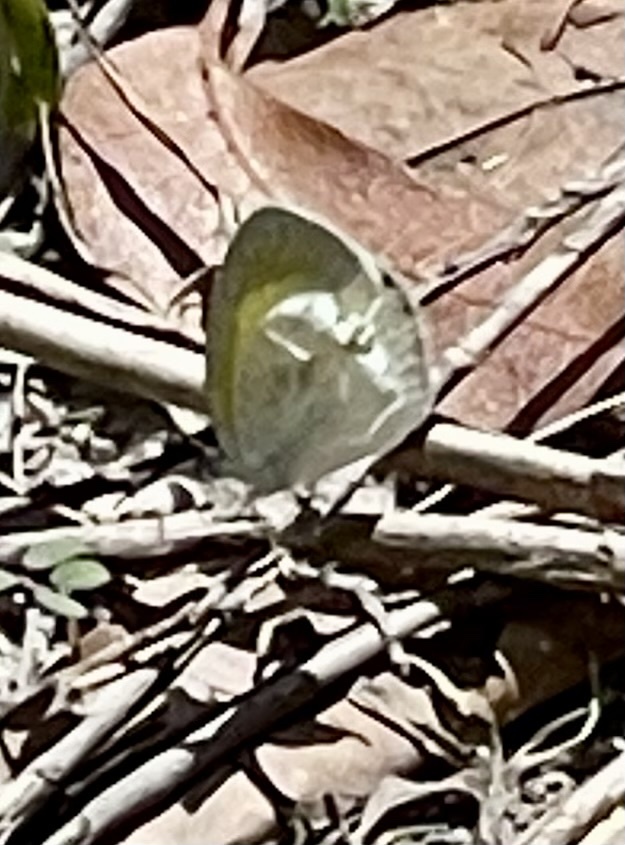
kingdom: Animalia
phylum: Arthropoda
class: Insecta
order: Lepidoptera
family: Pieridae
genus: Eurema
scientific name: Eurema daira
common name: Barred sulphur
